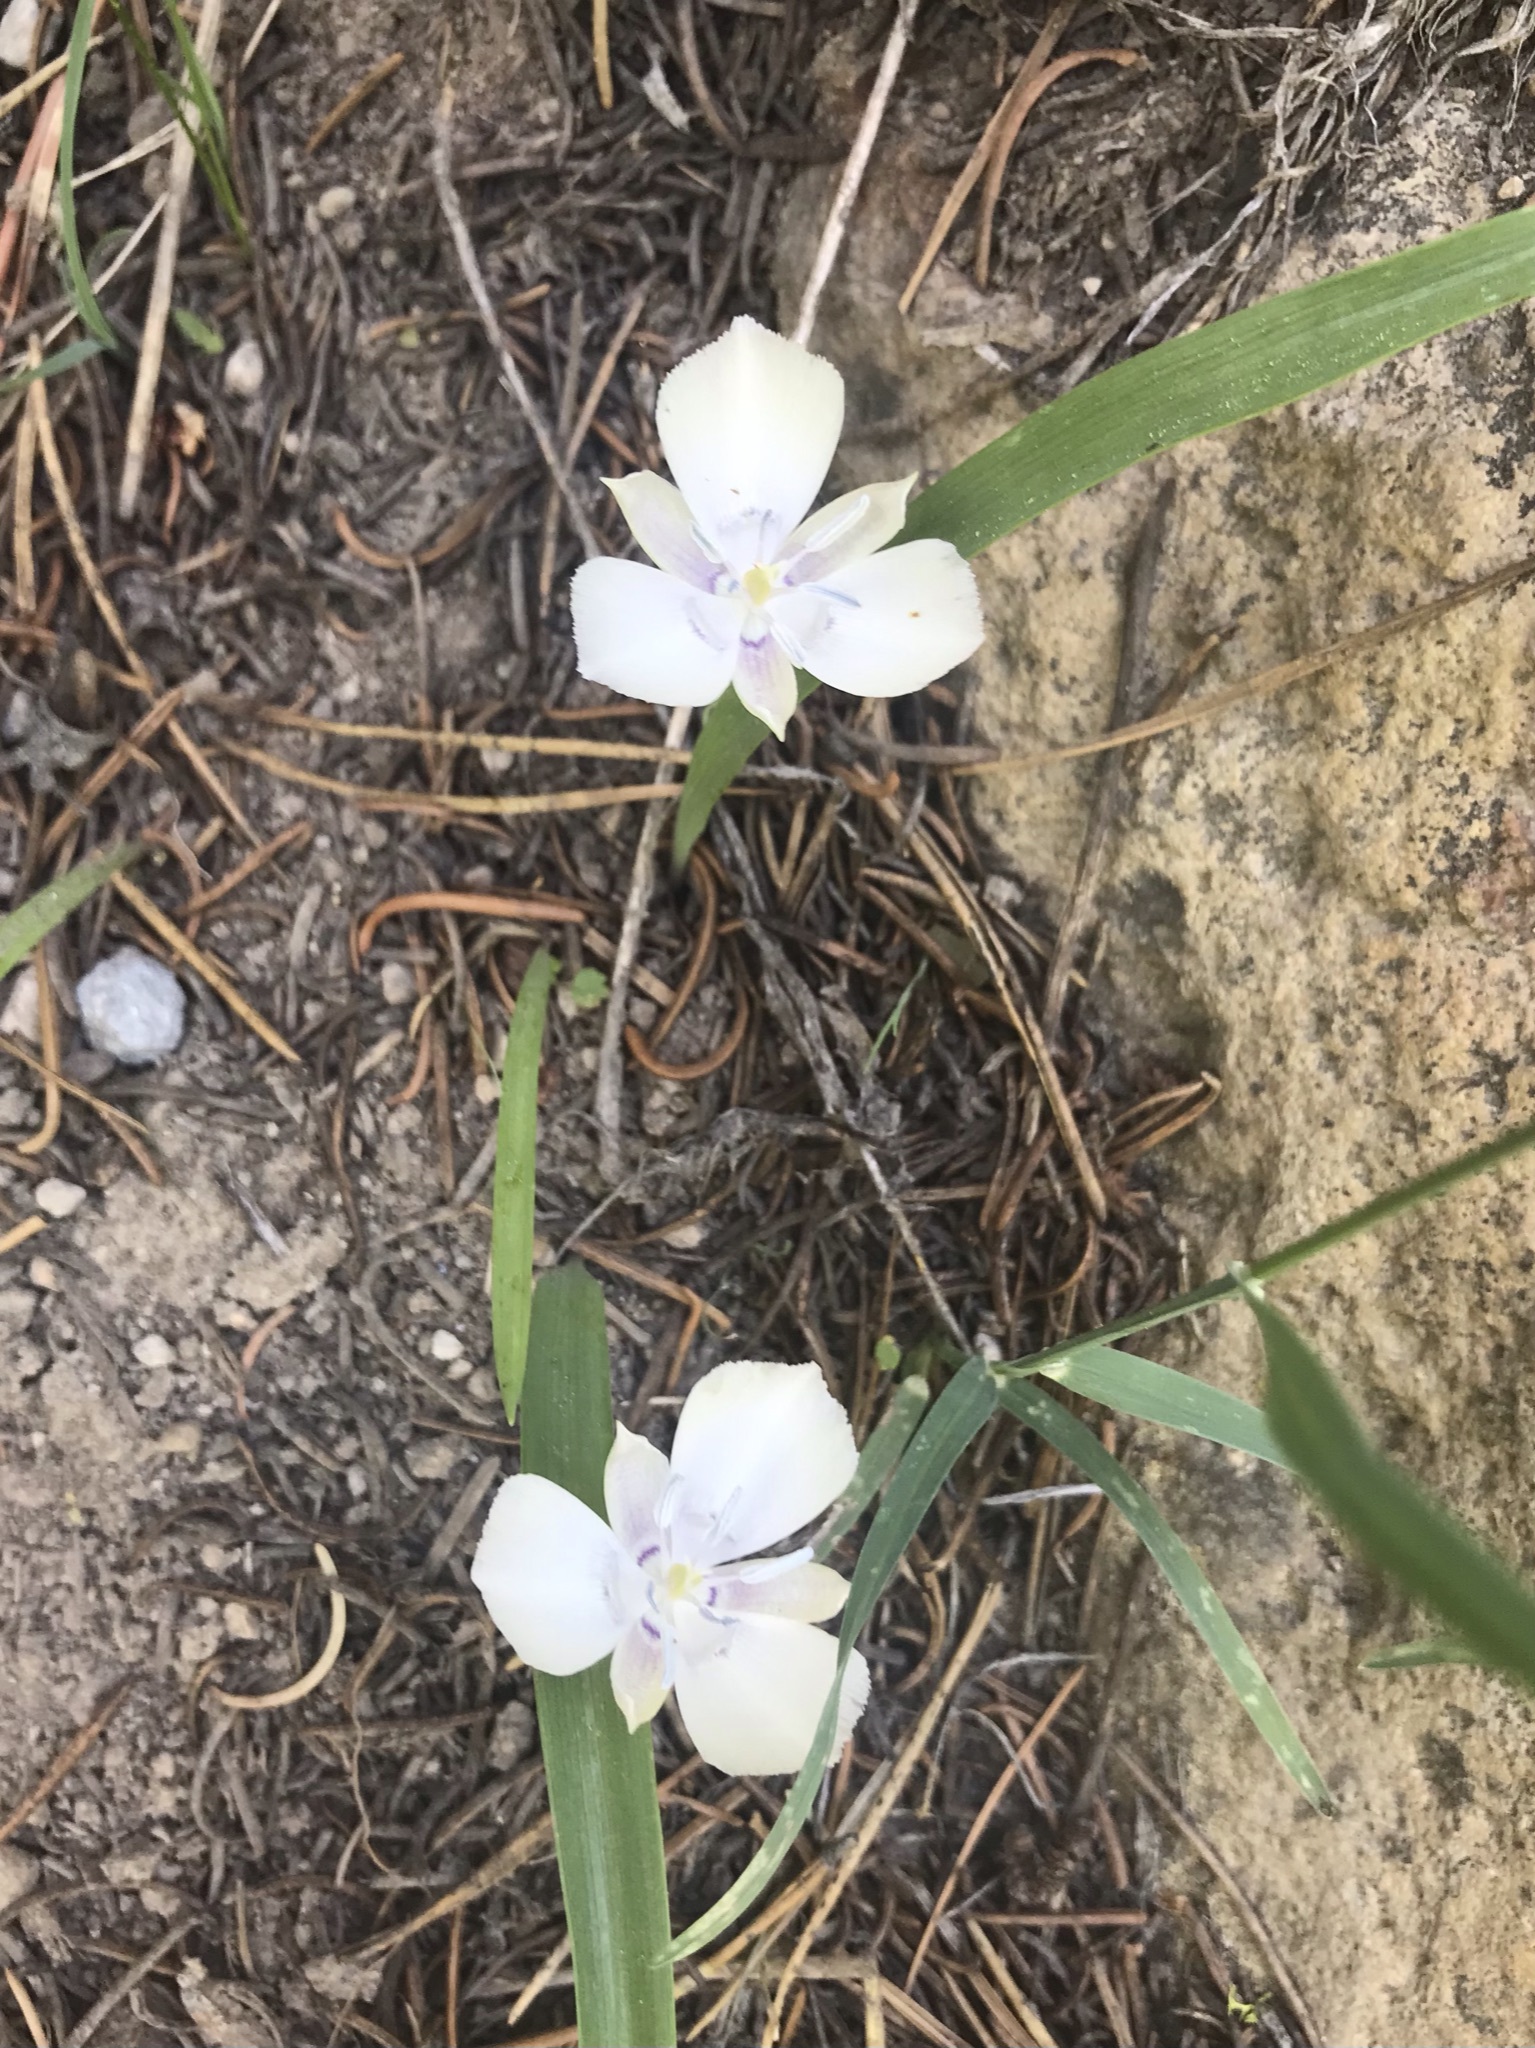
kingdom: Plantae
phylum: Tracheophyta
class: Liliopsida
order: Liliales
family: Liliaceae
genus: Calochortus
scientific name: Calochortus minimus
